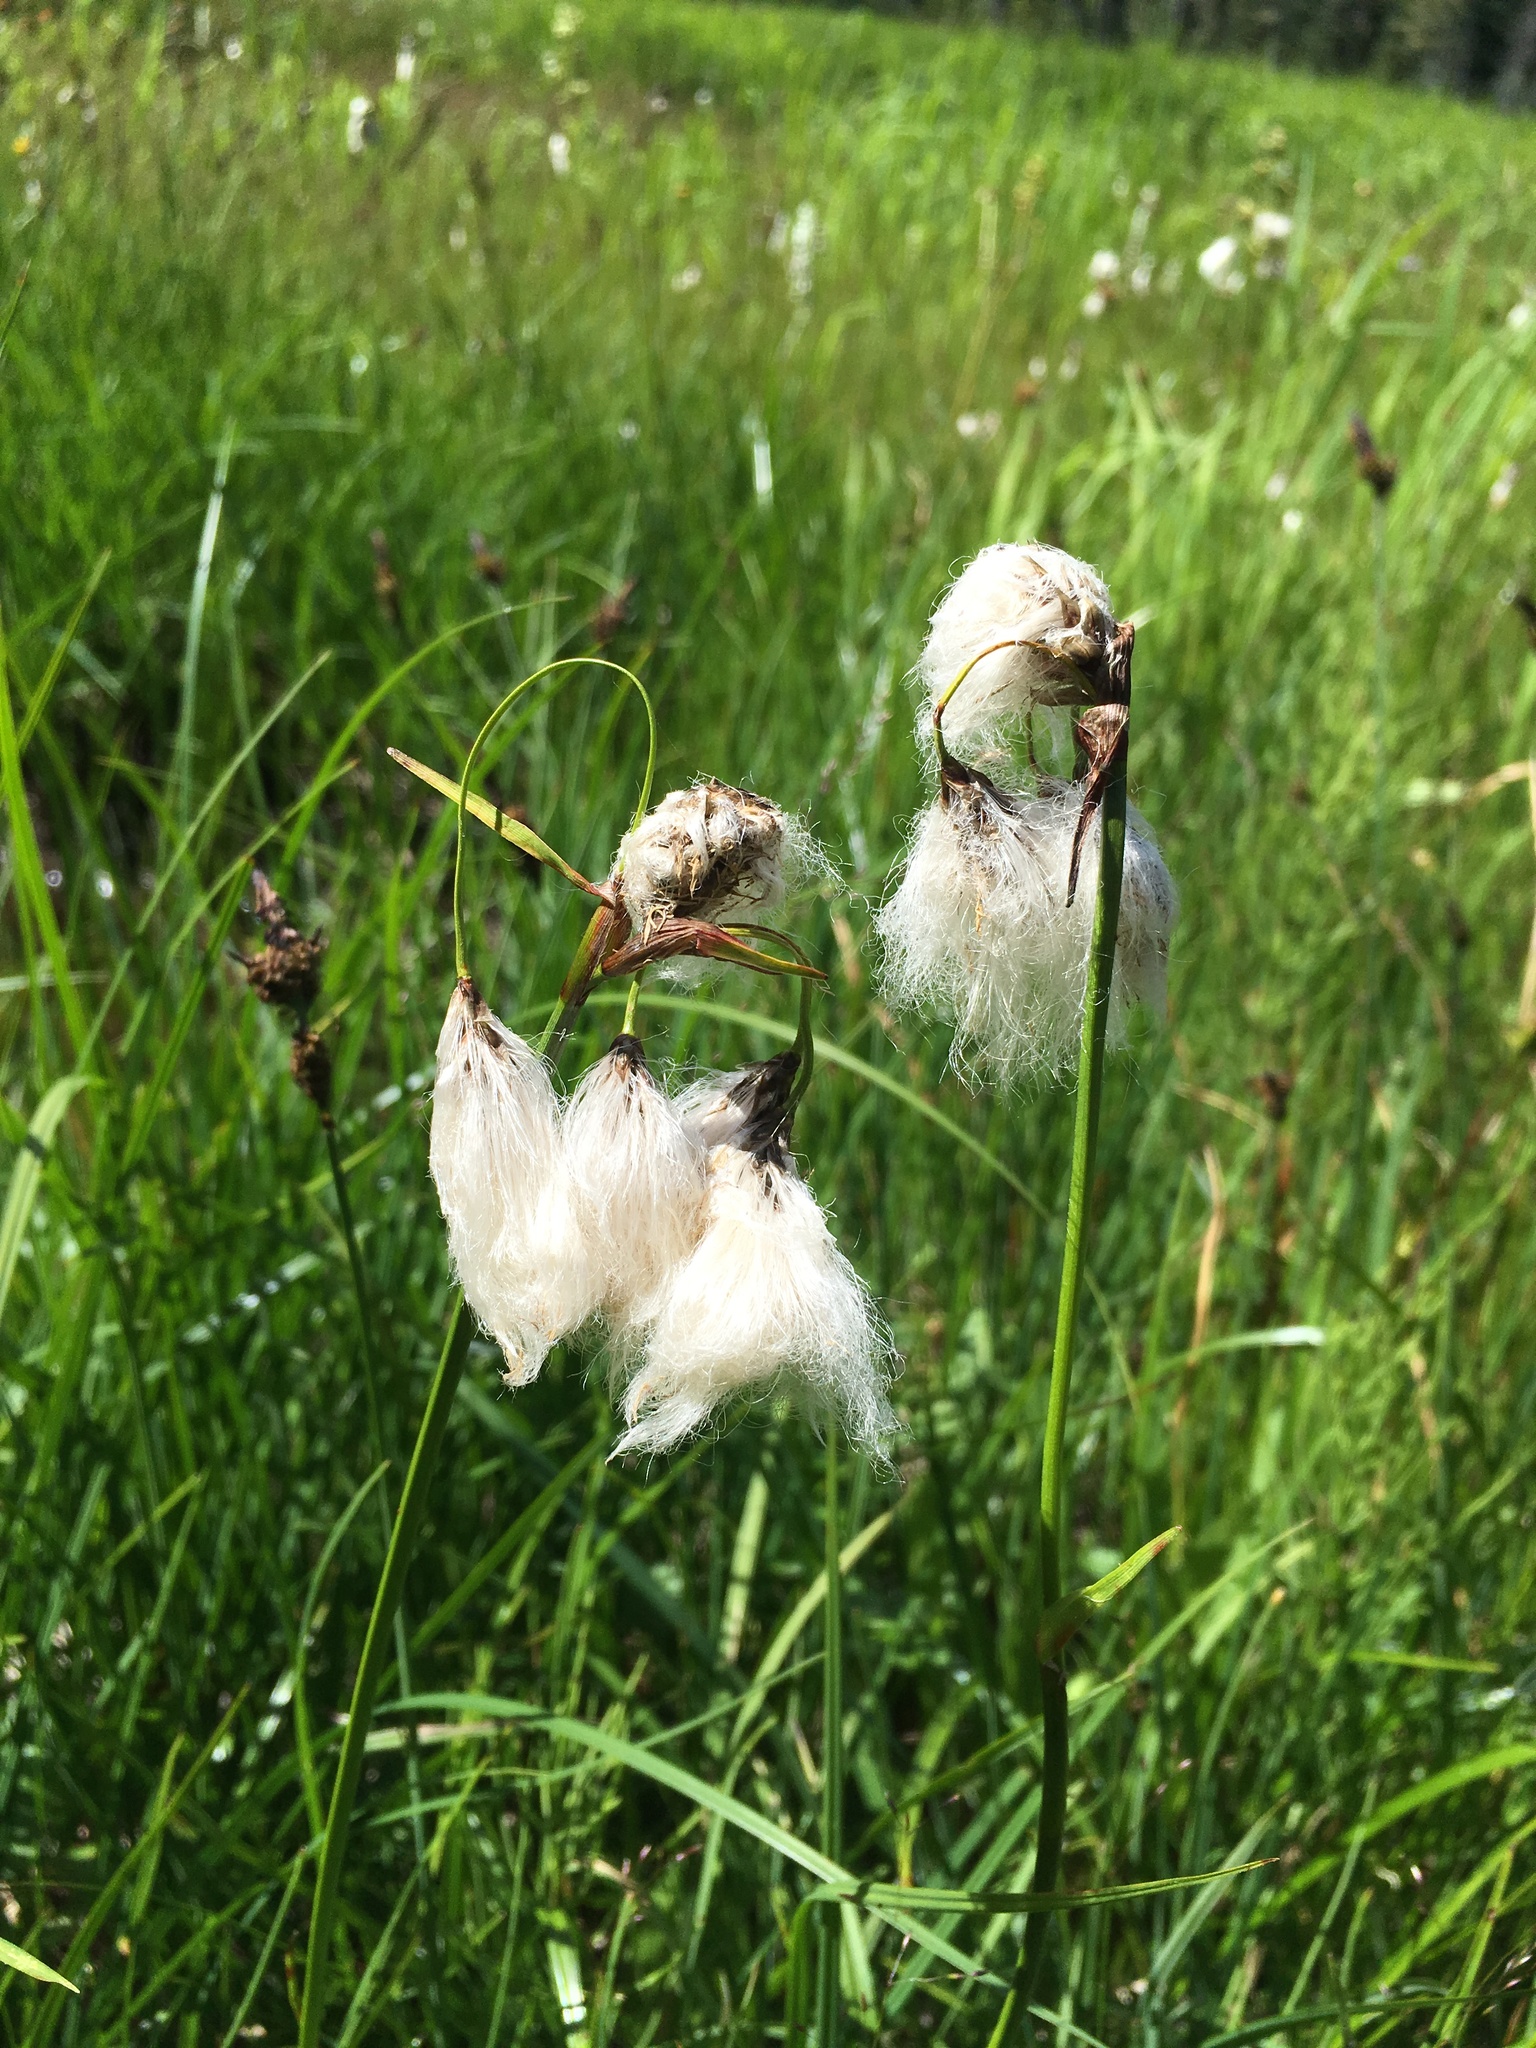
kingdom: Plantae
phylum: Tracheophyta
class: Liliopsida
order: Poales
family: Cyperaceae
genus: Eriophorum
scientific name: Eriophorum angustifolium
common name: Common cottongrass
